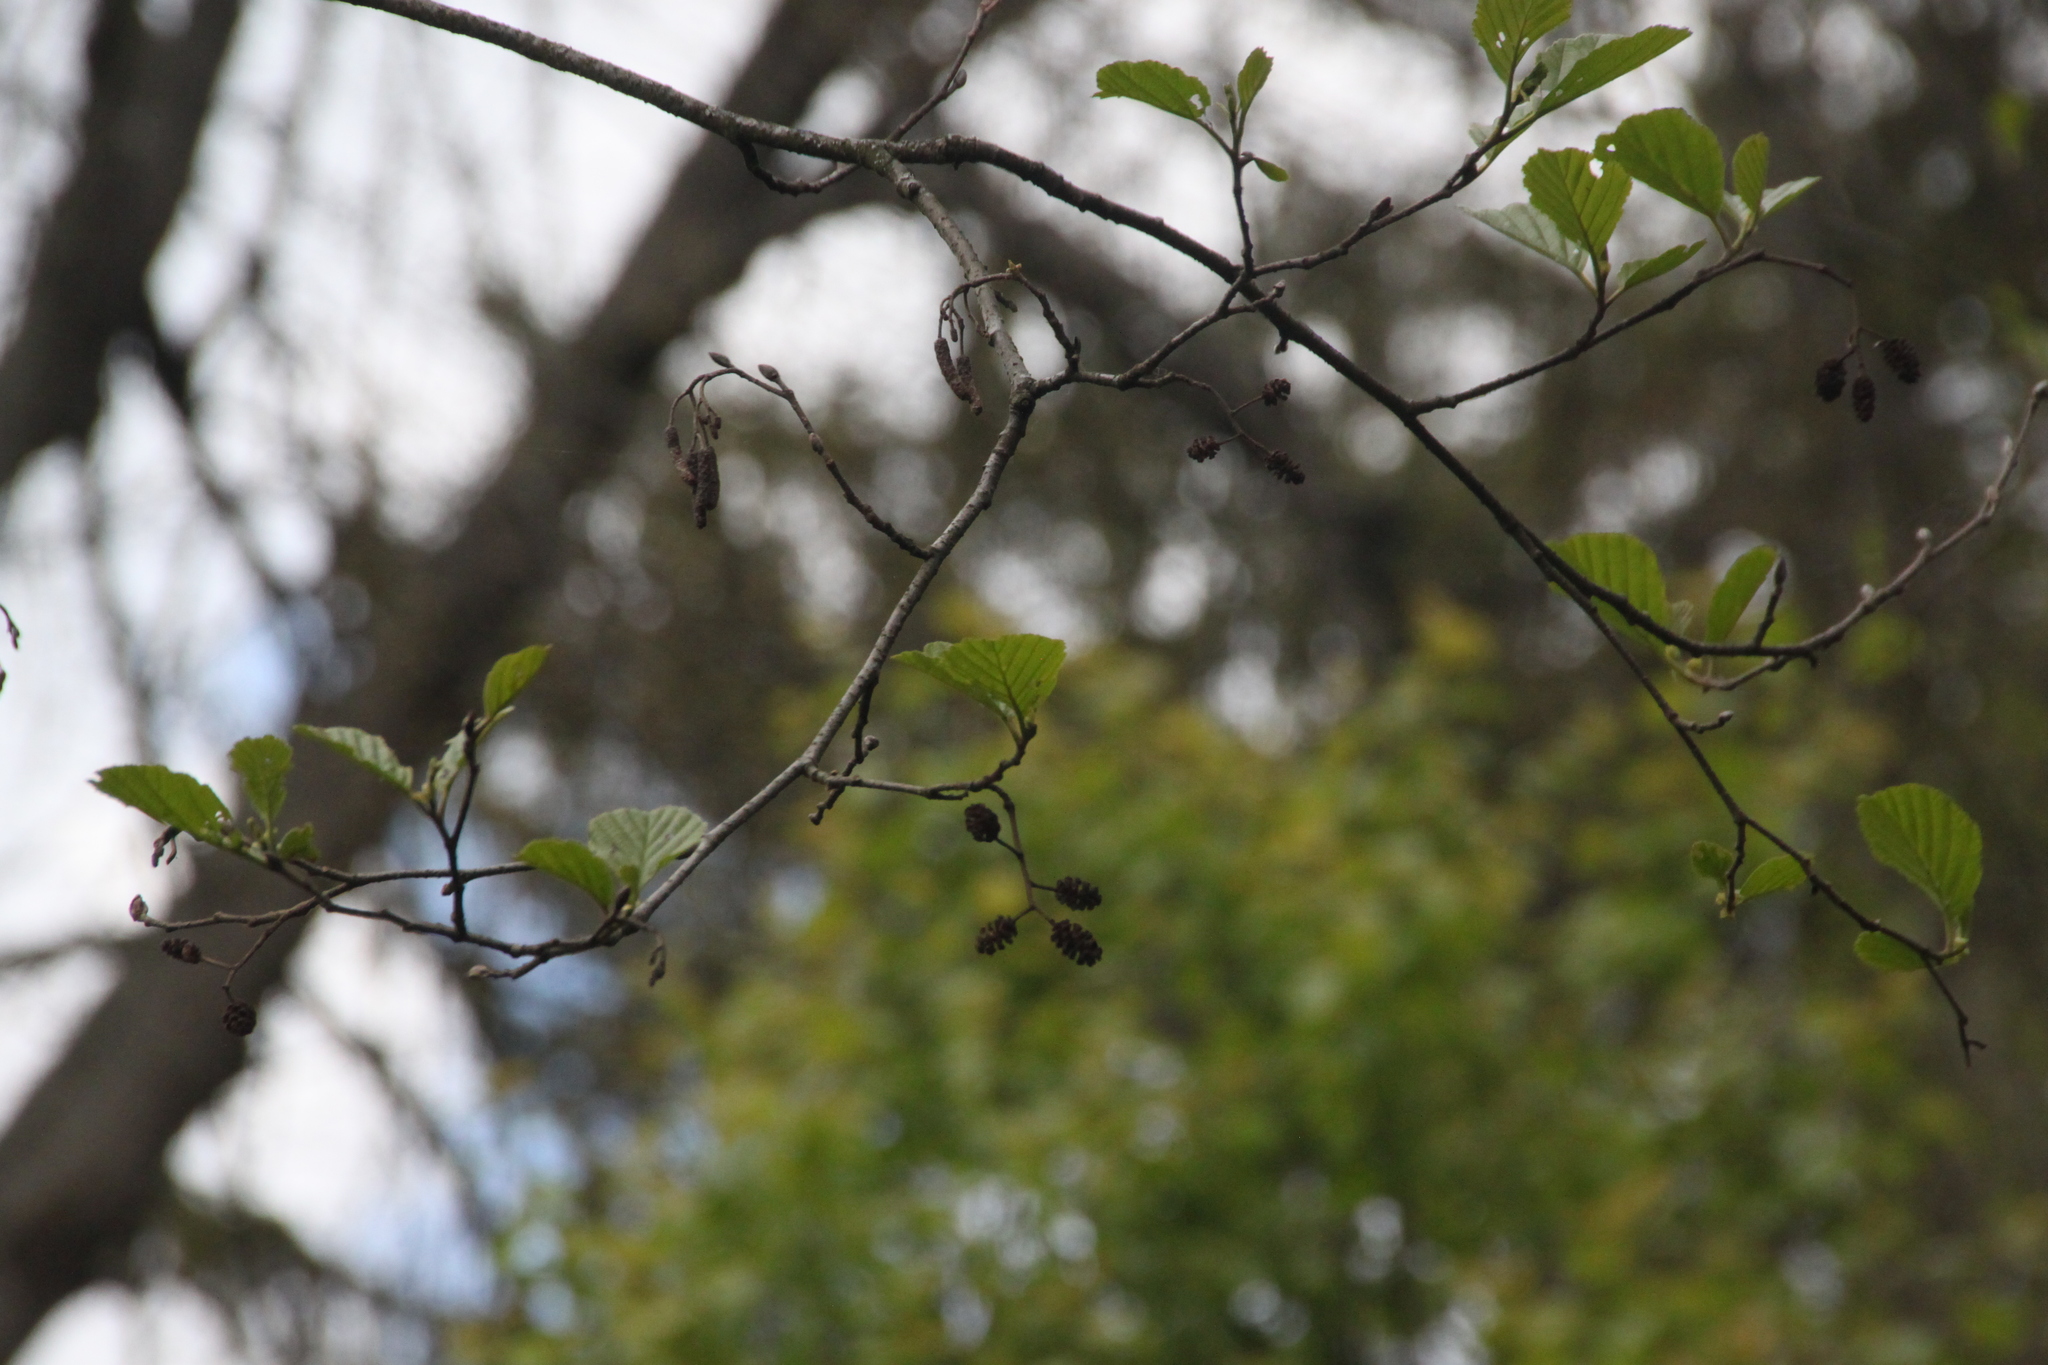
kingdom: Plantae
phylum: Tracheophyta
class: Magnoliopsida
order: Fagales
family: Betulaceae
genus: Alnus
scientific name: Alnus glutinosa
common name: Black alder
